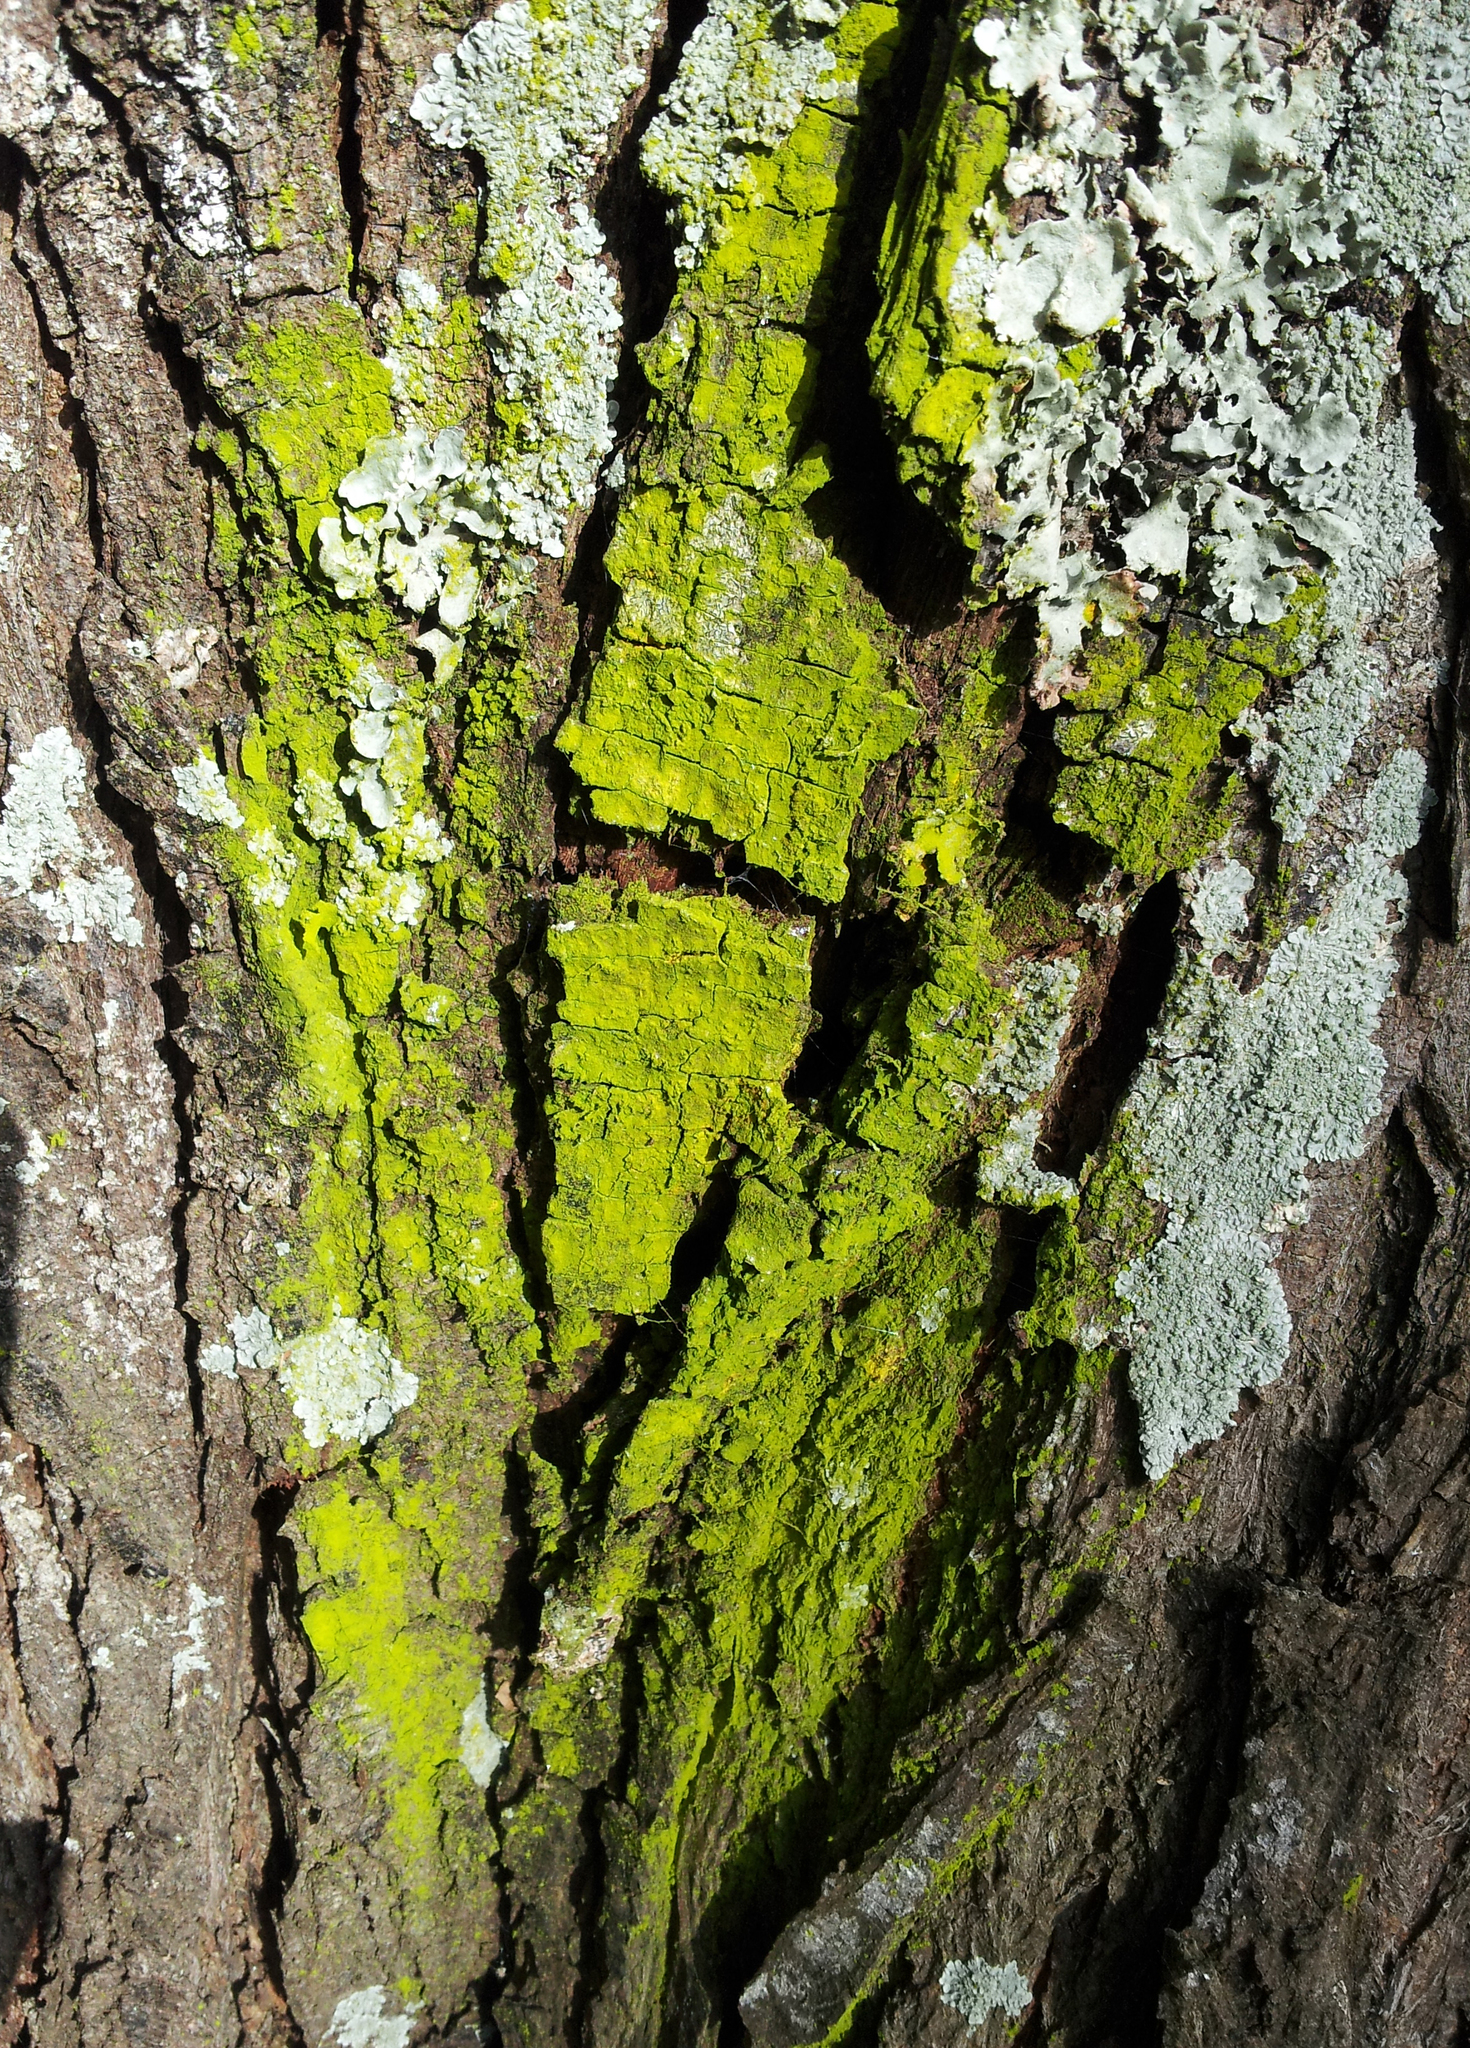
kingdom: Fungi
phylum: Ascomycota
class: Arthoniomycetes
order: Arthoniales
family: Chrysotrichaceae
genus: Chrysothrix
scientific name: Chrysothrix xanthina
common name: Common gold-dust
